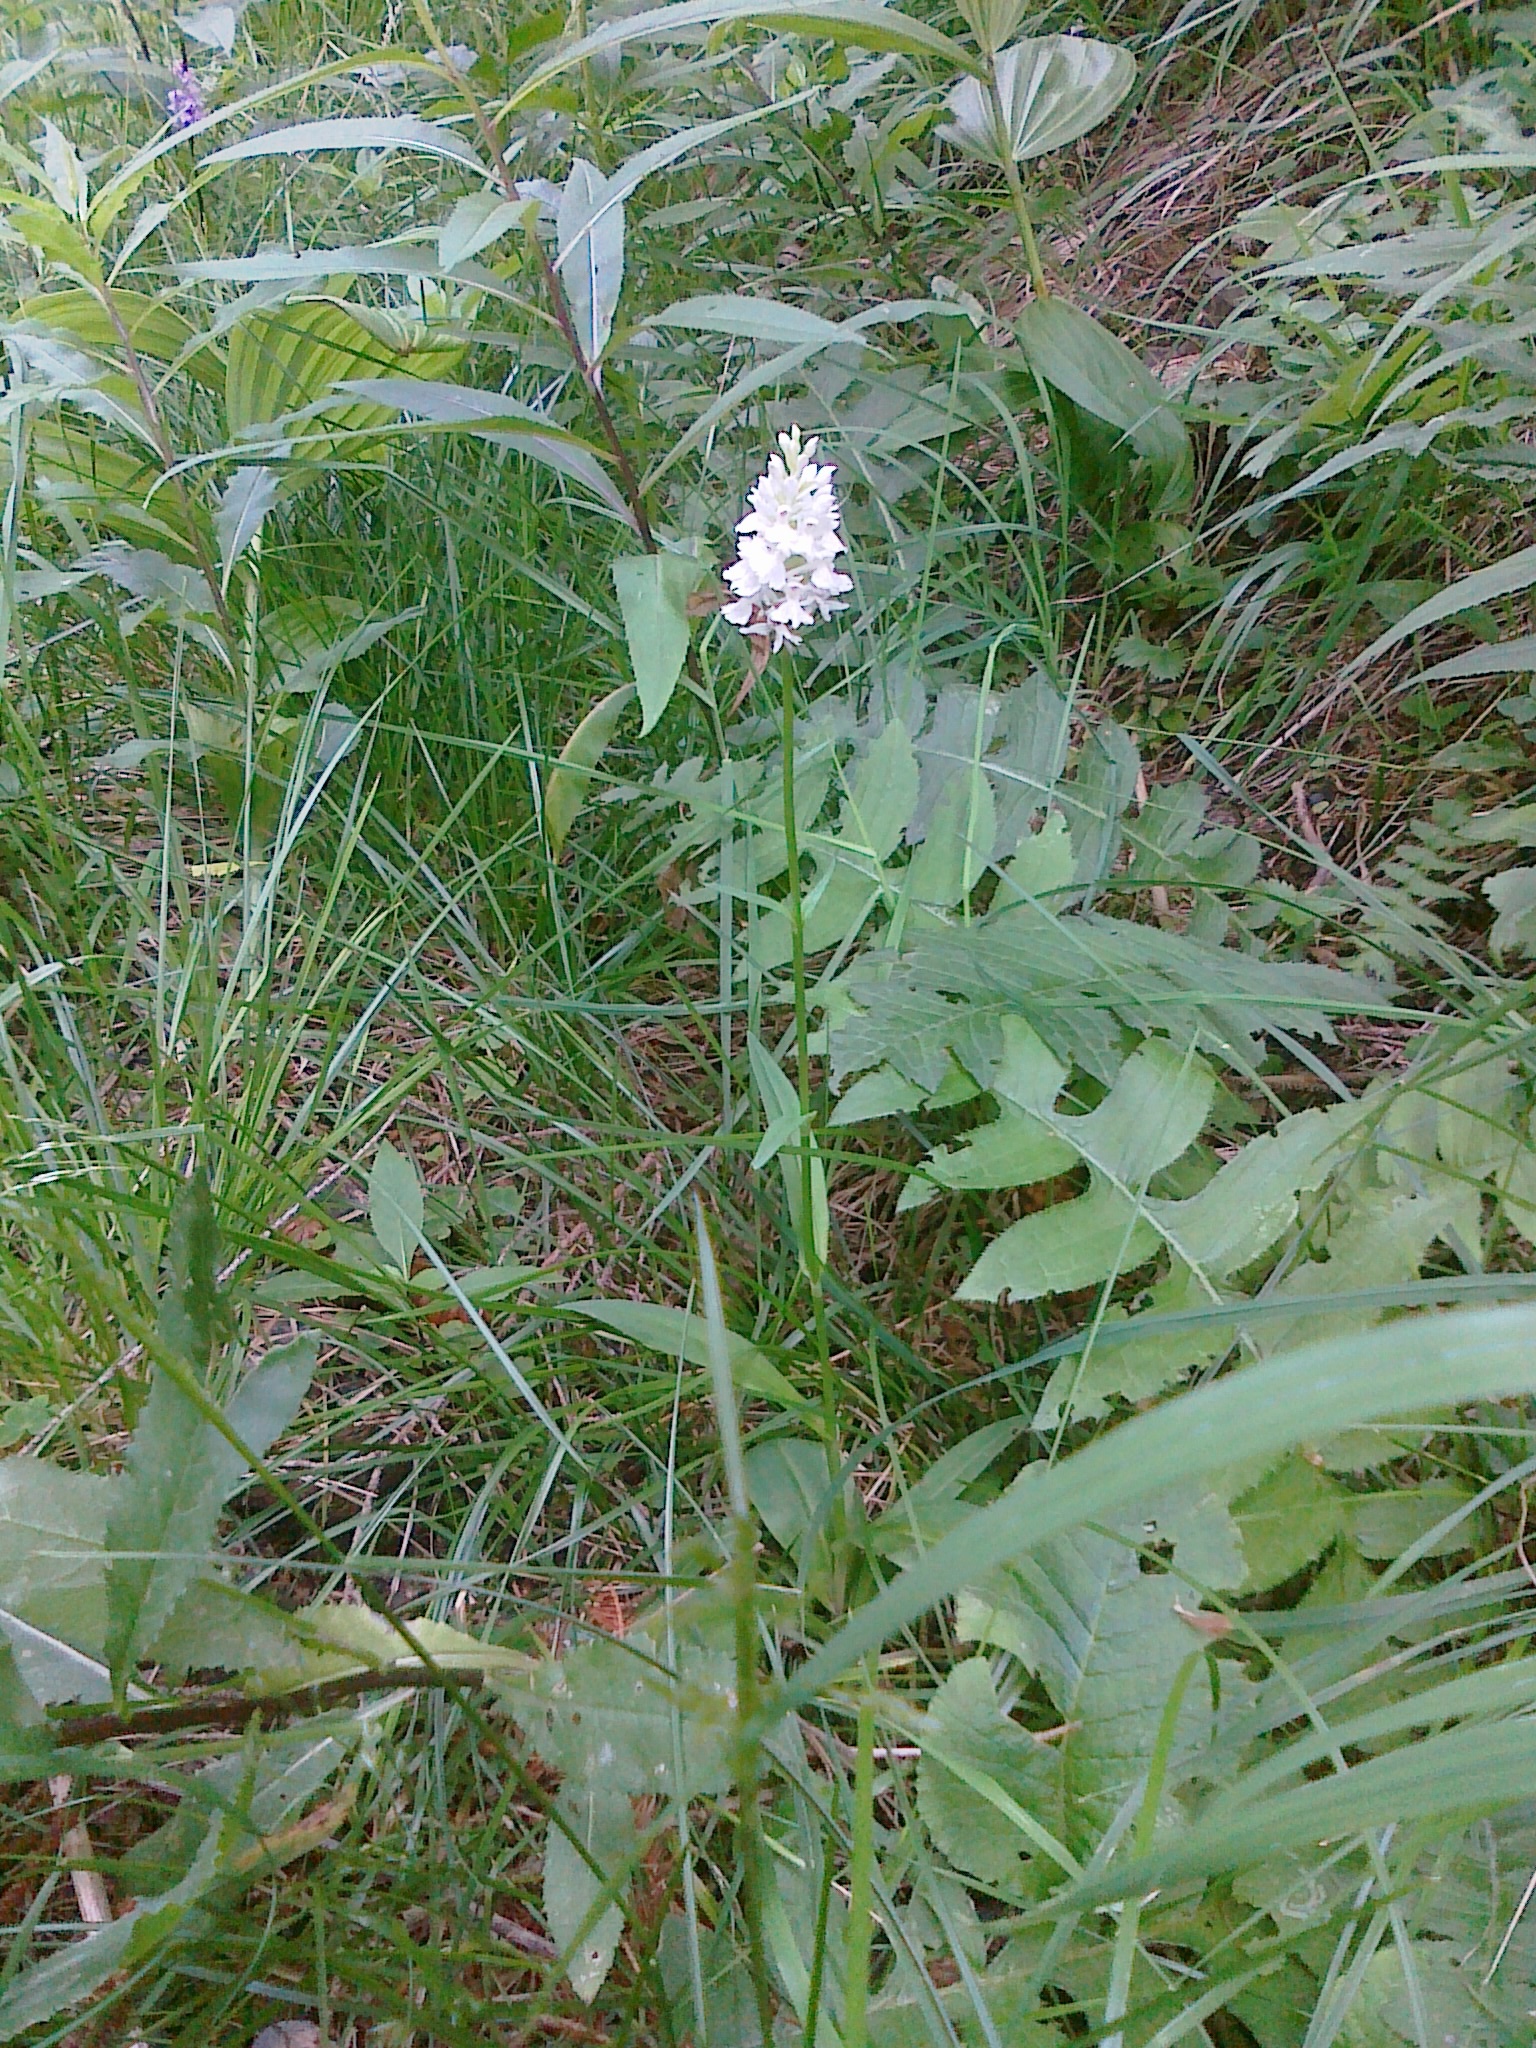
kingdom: Plantae
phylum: Tracheophyta
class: Liliopsida
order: Asparagales
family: Orchidaceae
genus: Dactylorhiza
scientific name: Dactylorhiza maculata
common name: Heath spotted-orchid
